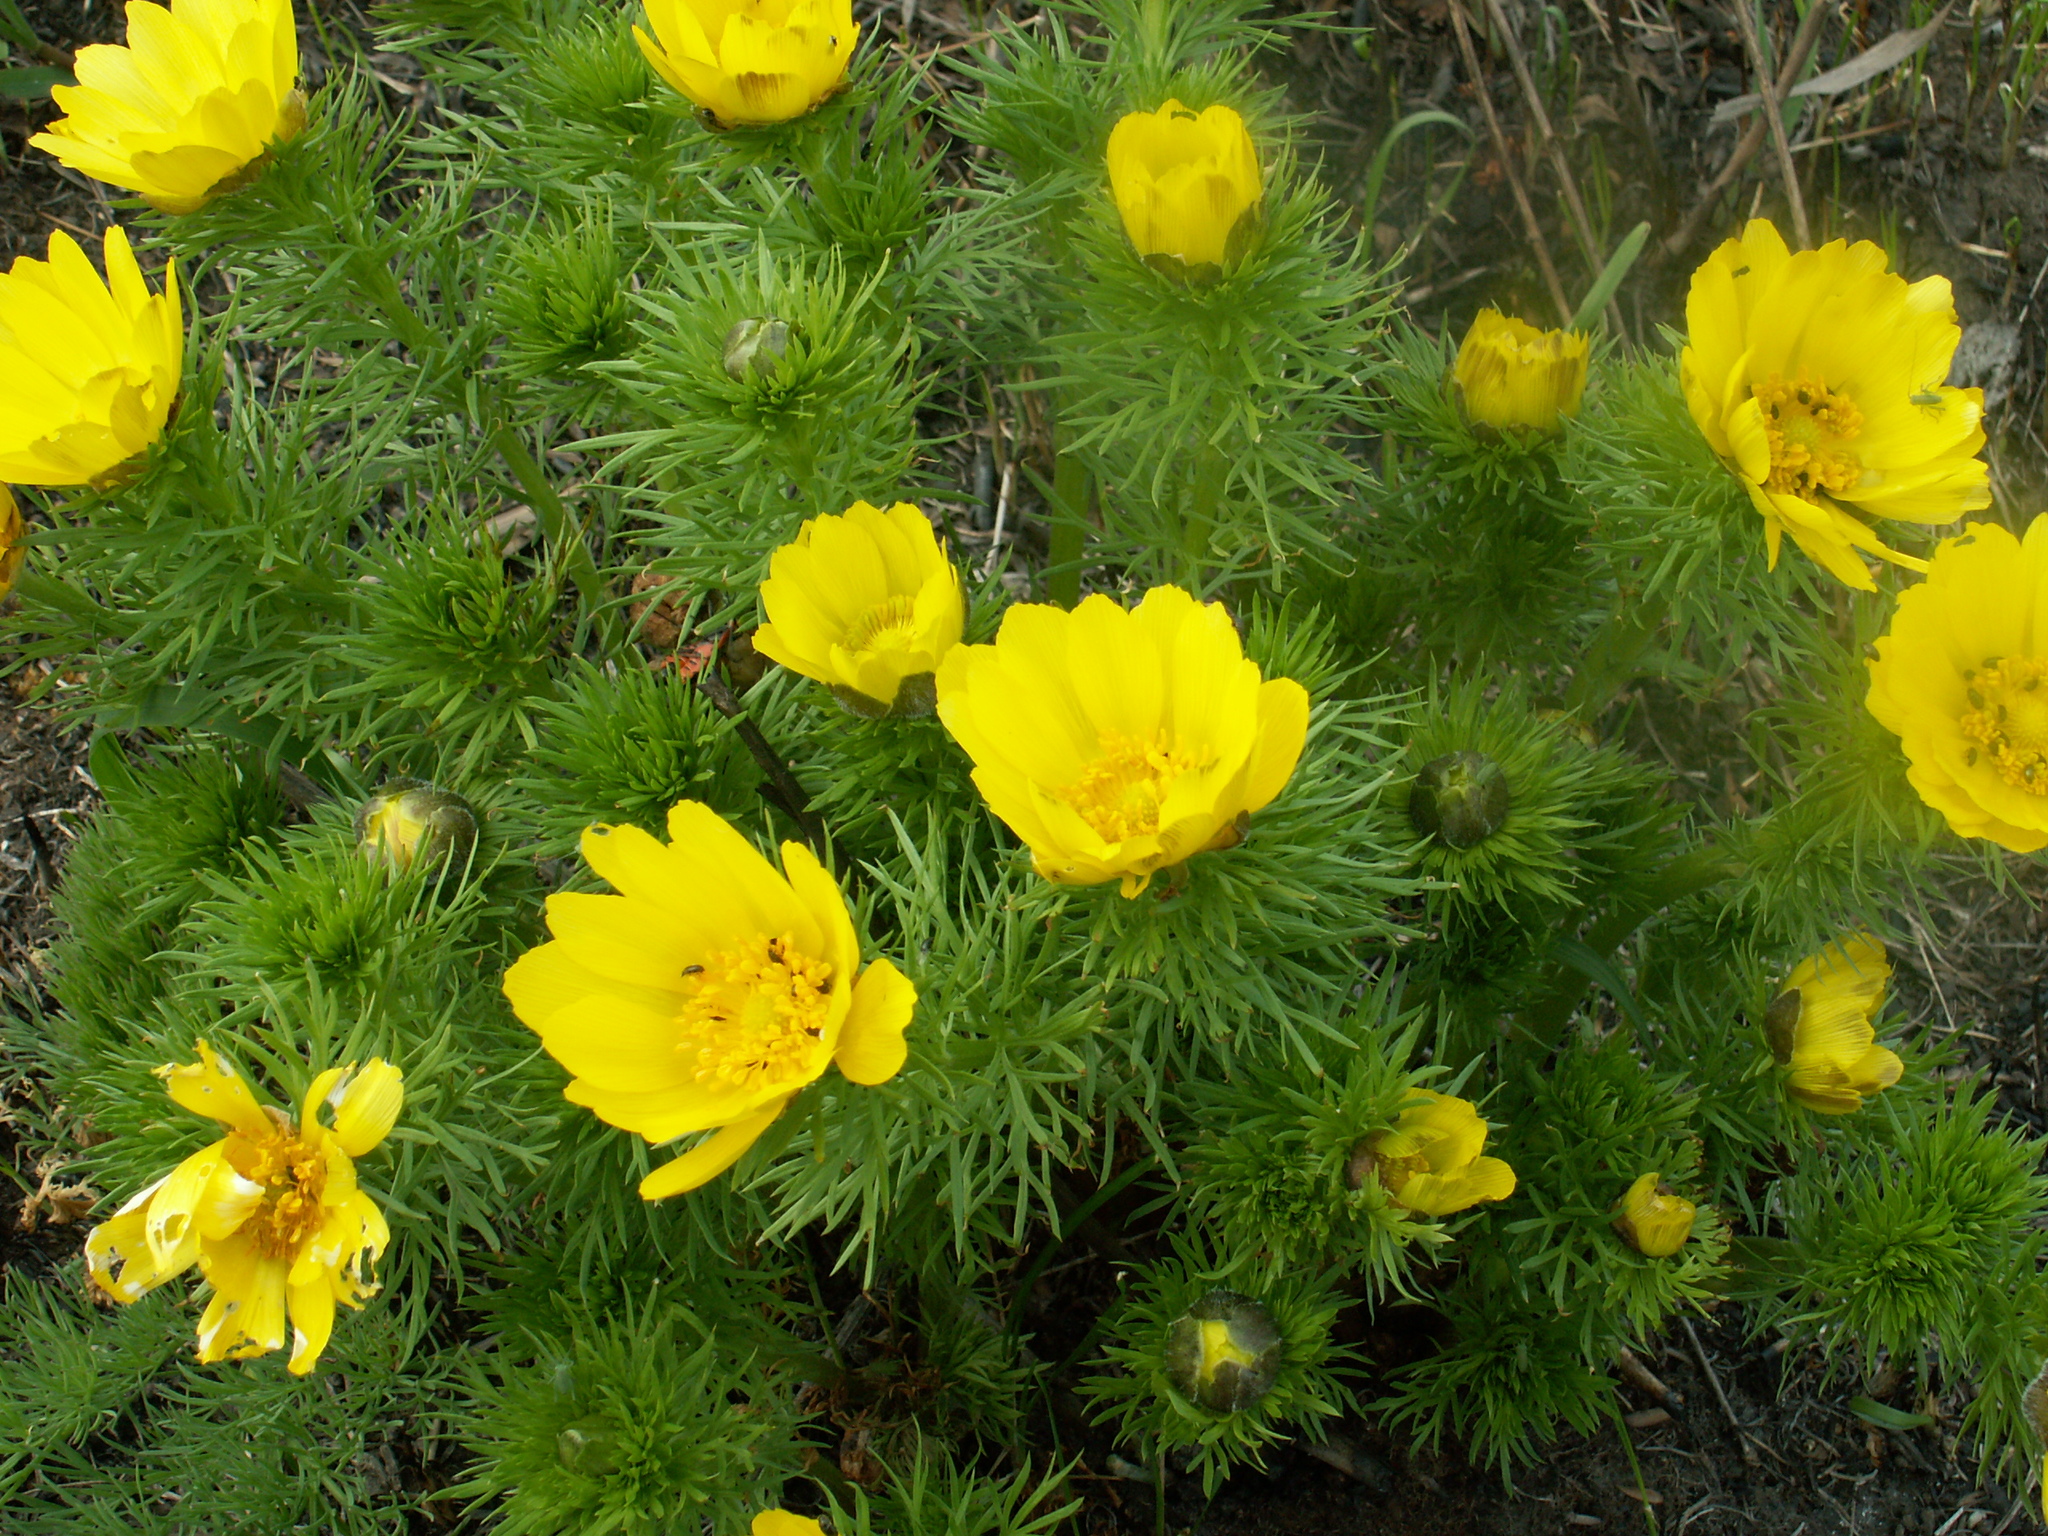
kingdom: Plantae
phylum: Tracheophyta
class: Magnoliopsida
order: Ranunculales
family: Ranunculaceae
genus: Adonis
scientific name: Adonis vernalis
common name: Yellow pheasants-eye
